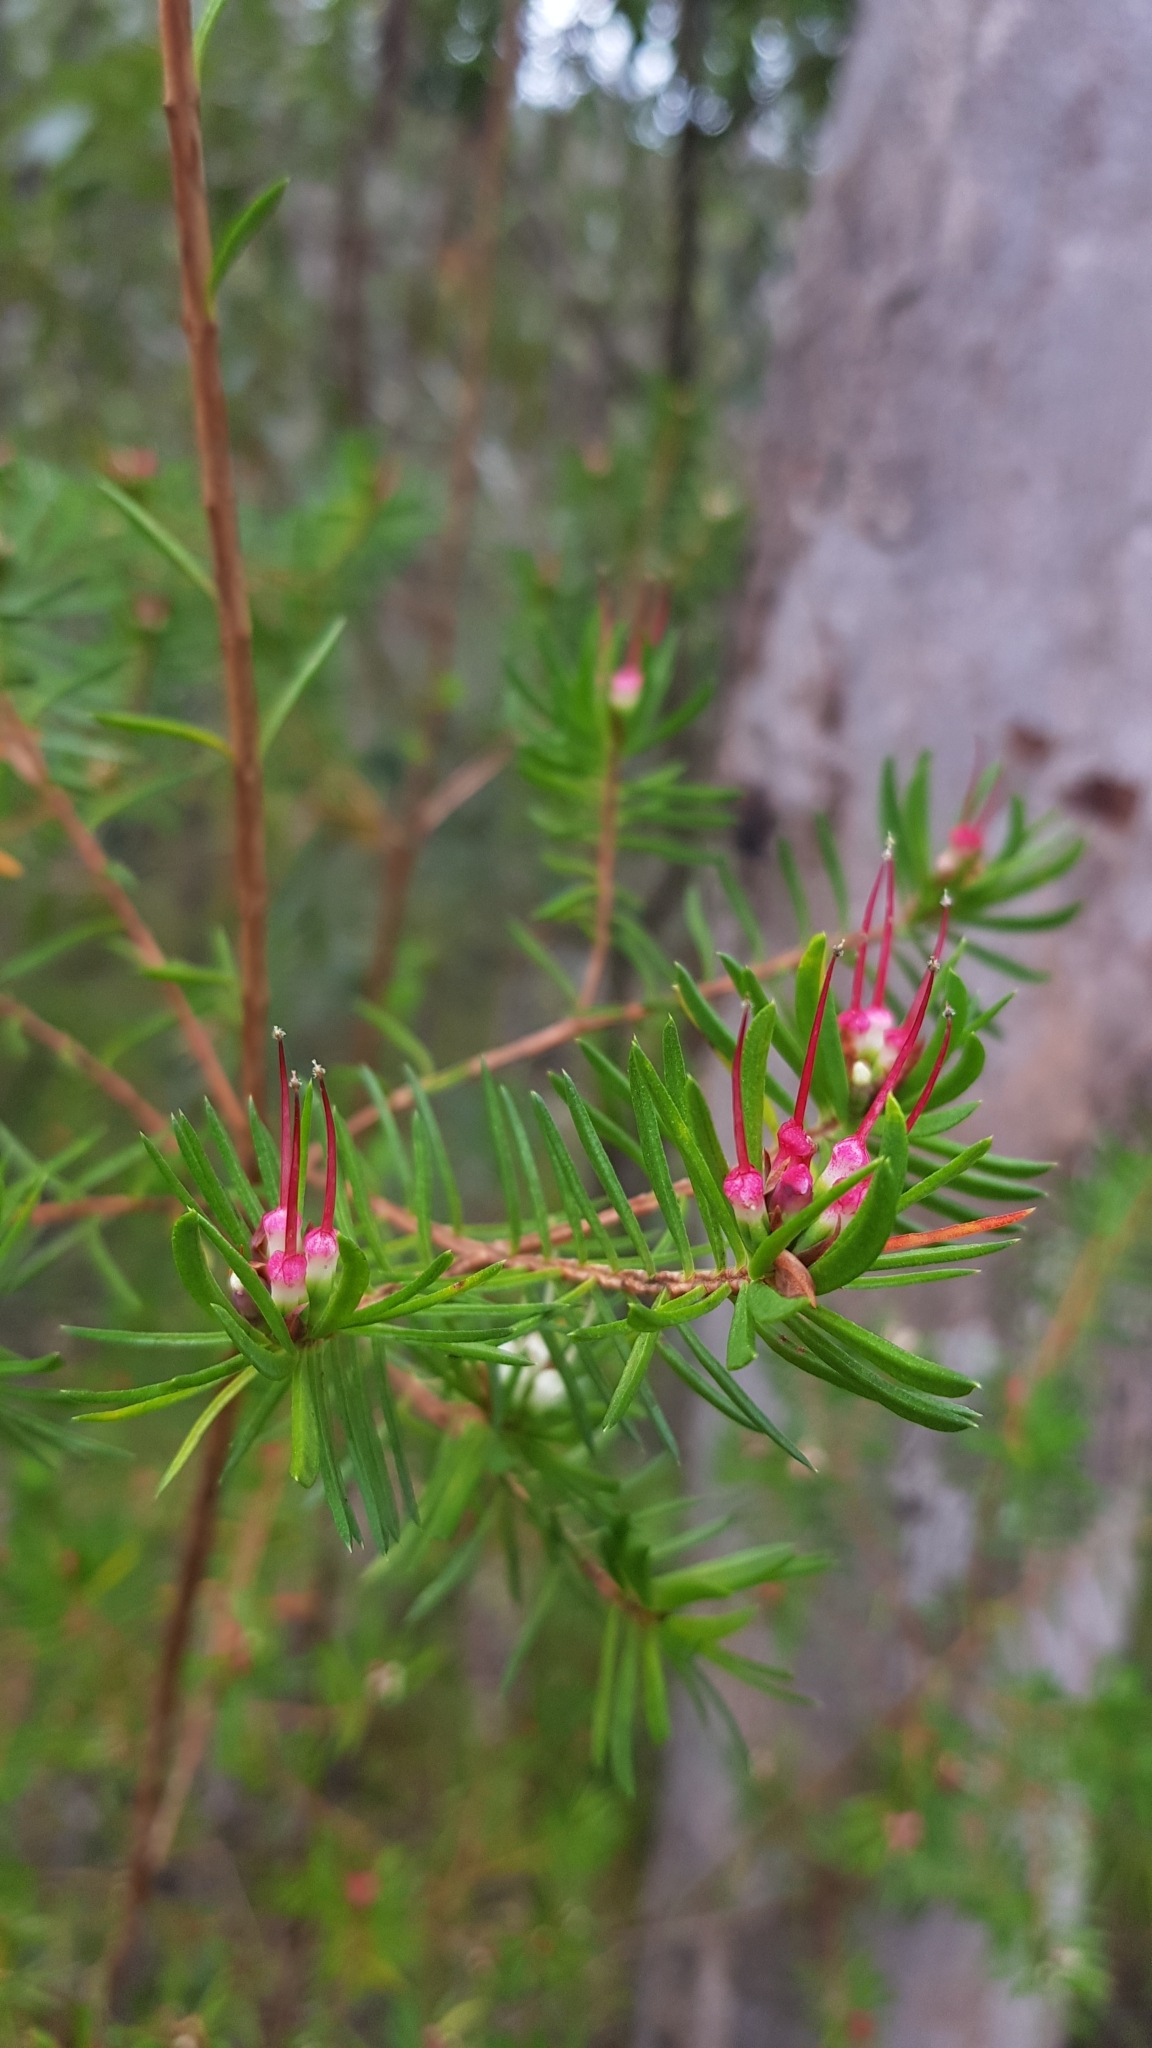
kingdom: Plantae
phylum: Tracheophyta
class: Magnoliopsida
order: Myrtales
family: Myrtaceae
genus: Darwinia
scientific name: Darwinia procera
